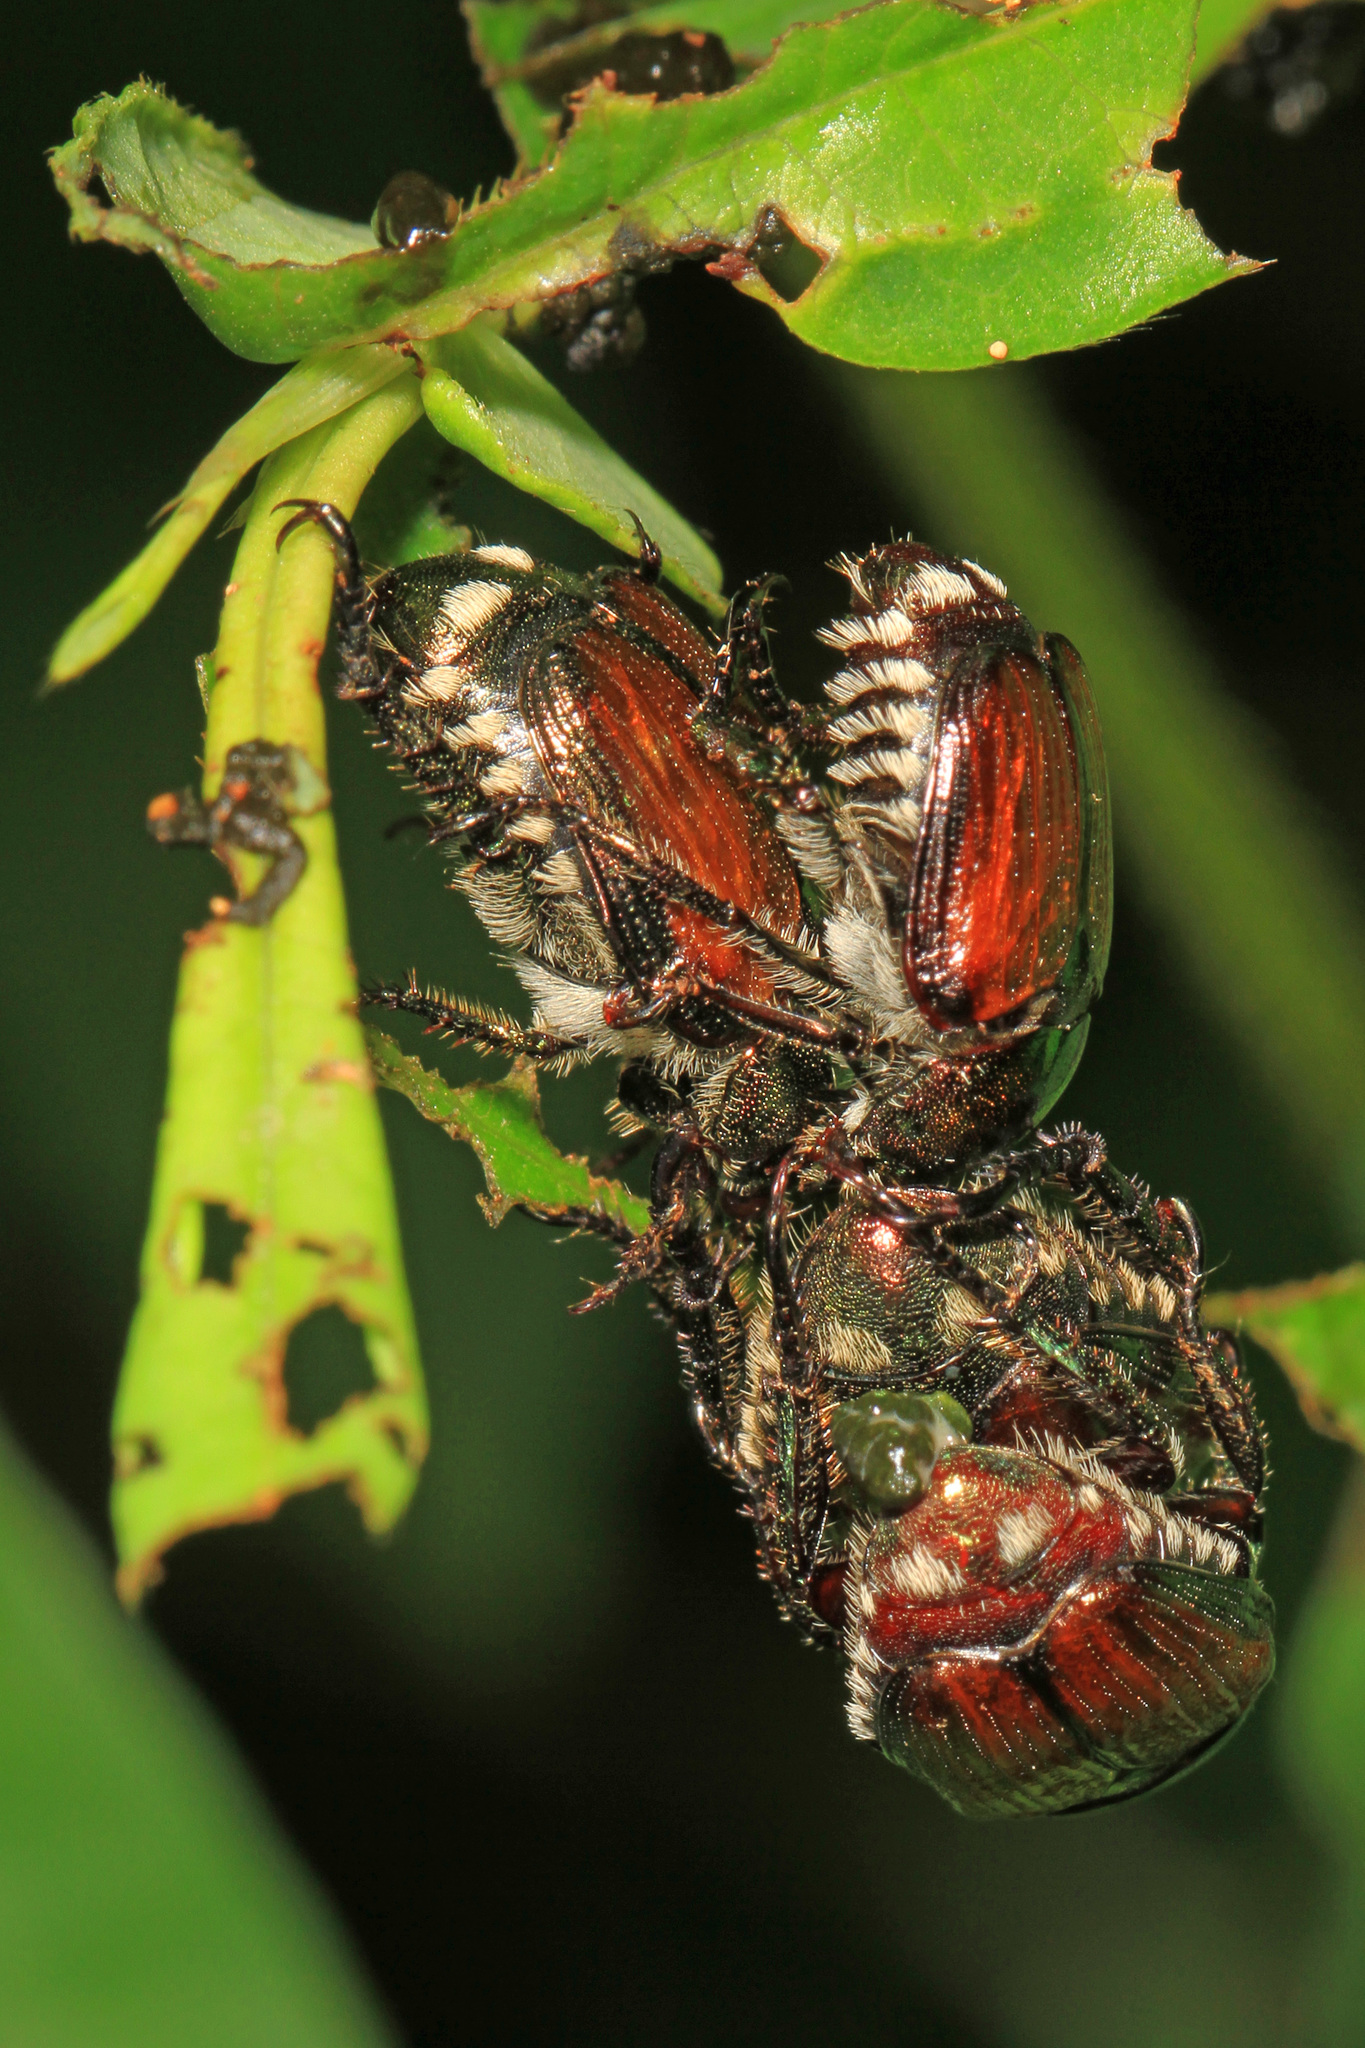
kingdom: Animalia
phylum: Arthropoda
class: Insecta
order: Coleoptera
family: Scarabaeidae
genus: Popillia
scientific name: Popillia japonica
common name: Japanese beetle
